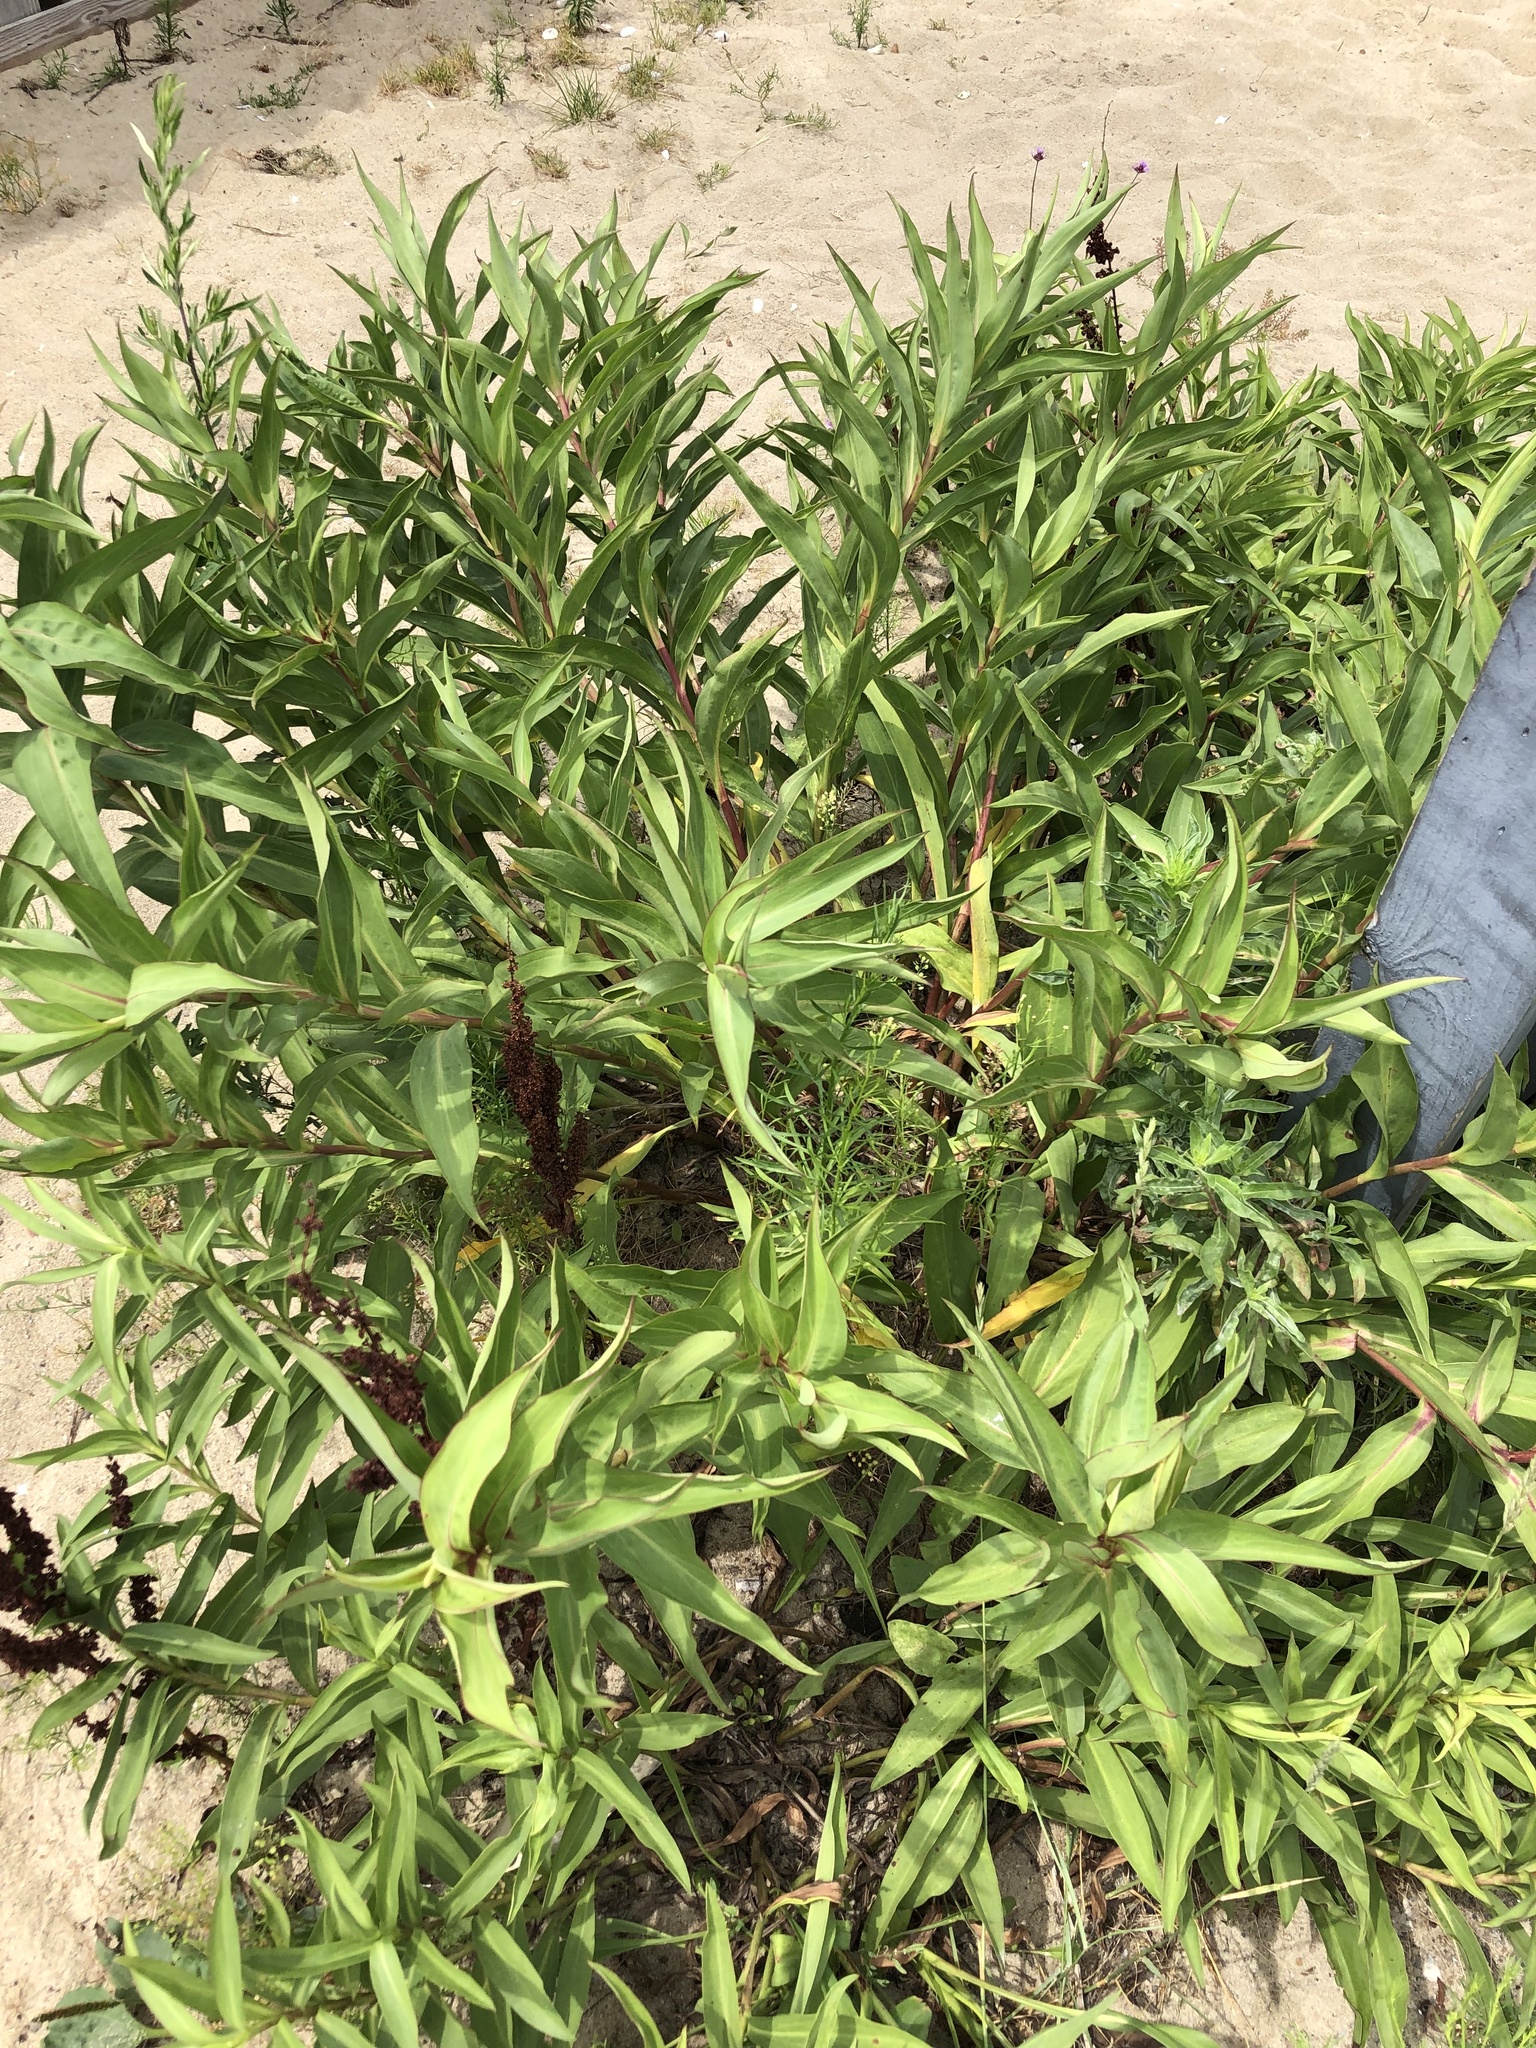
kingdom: Plantae
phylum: Tracheophyta
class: Magnoliopsida
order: Asterales
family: Asteraceae
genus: Solidago
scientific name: Solidago sempervirens
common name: Salt-marsh goldenrod
